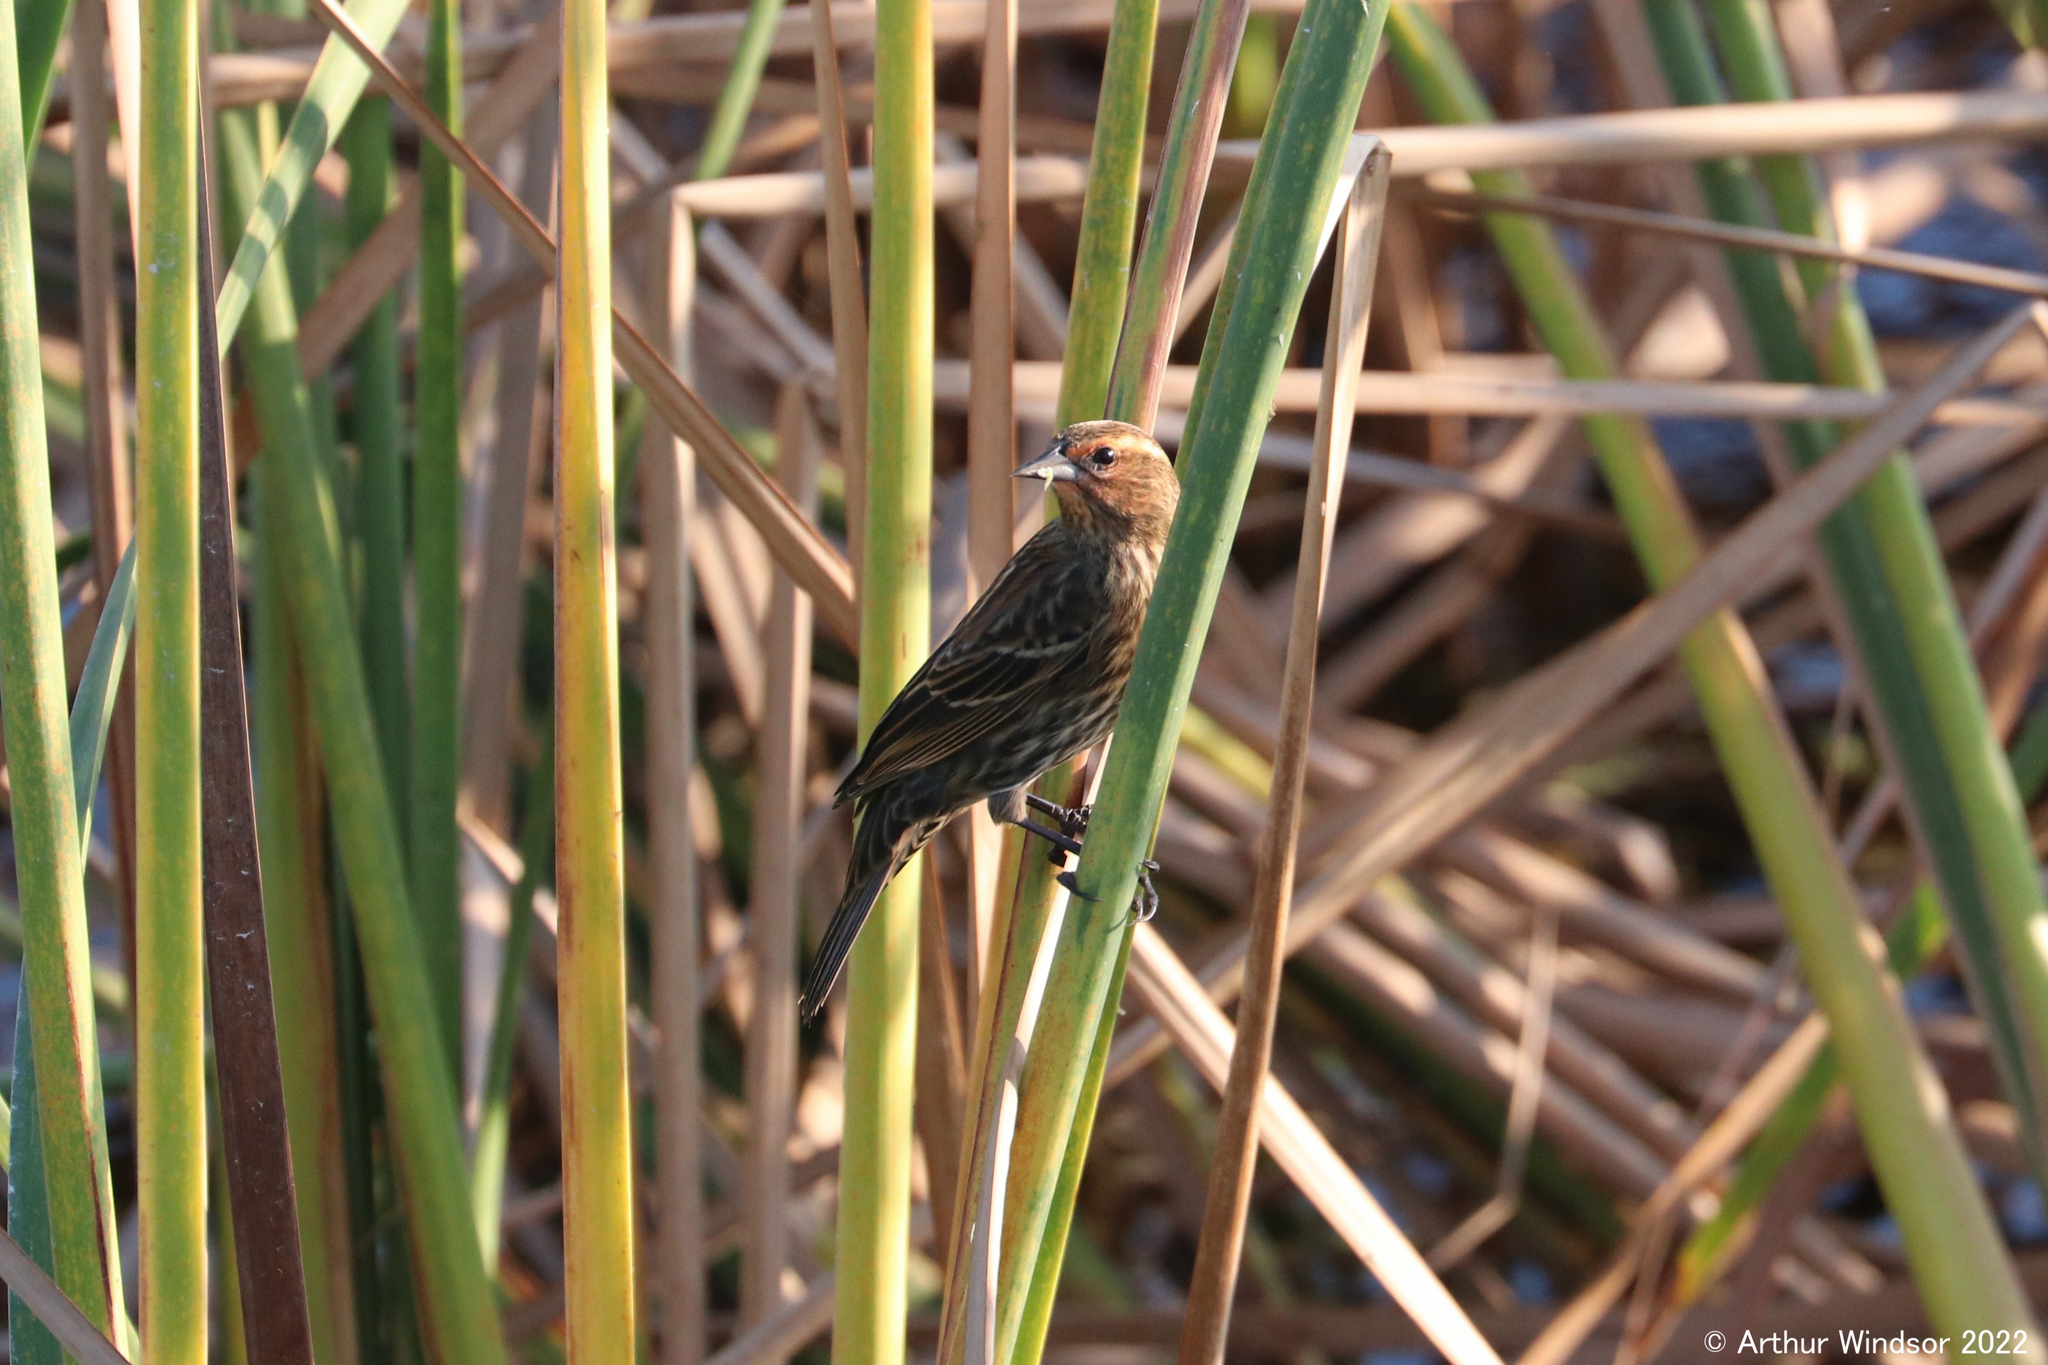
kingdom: Animalia
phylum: Chordata
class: Aves
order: Passeriformes
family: Icteridae
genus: Agelaius
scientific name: Agelaius phoeniceus
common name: Red-winged blackbird
